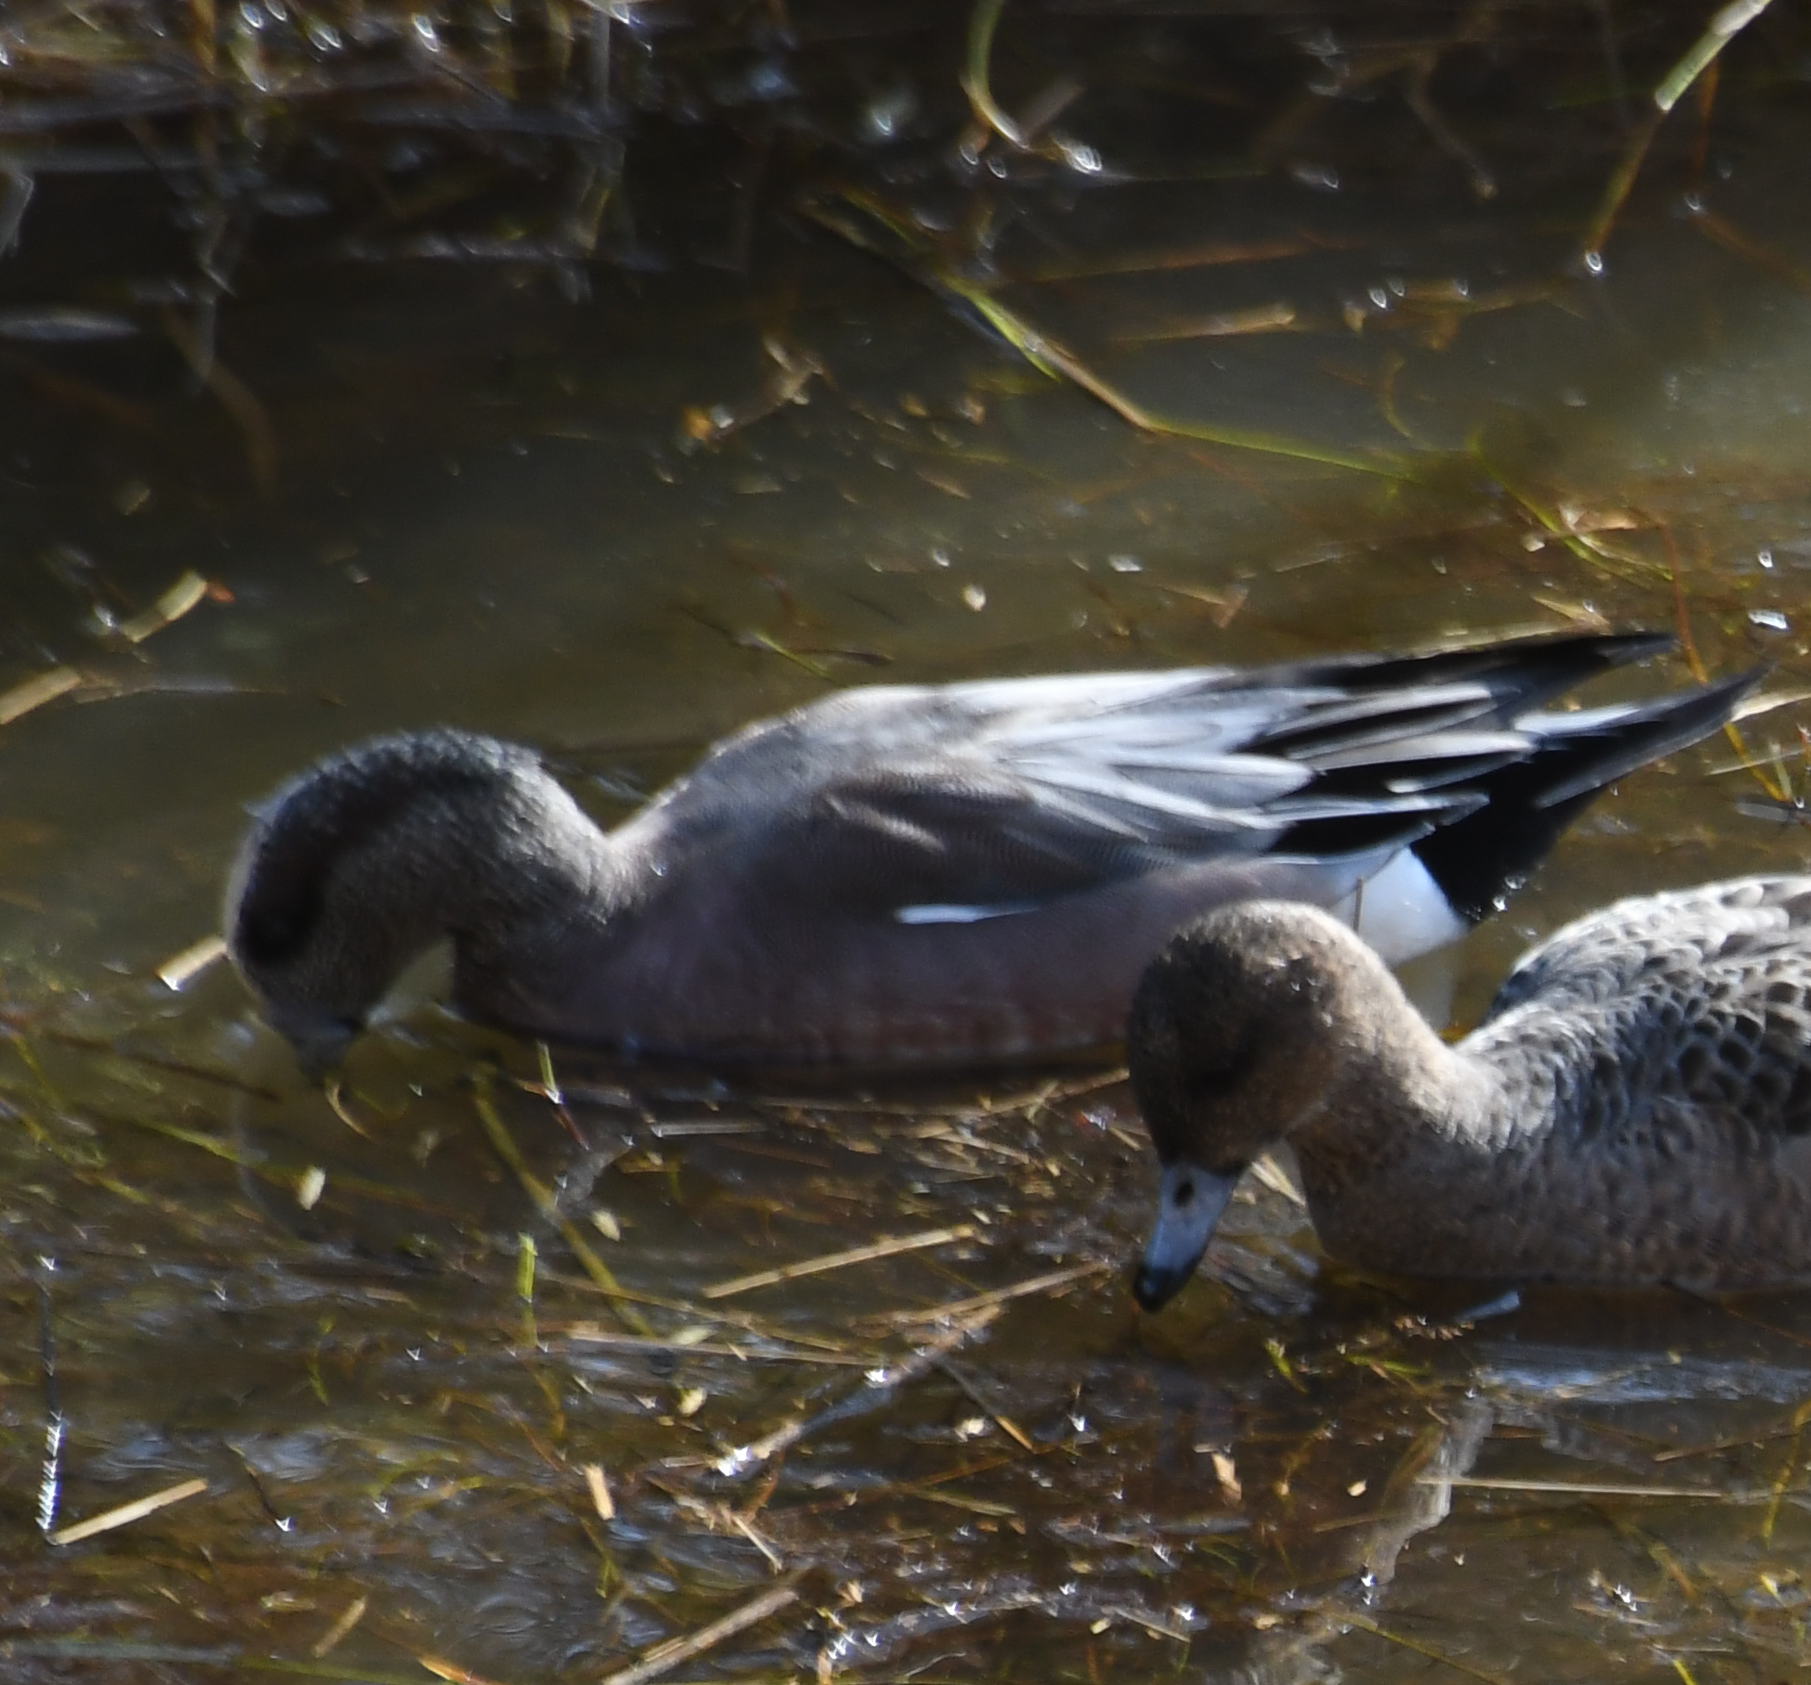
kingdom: Animalia
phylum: Chordata
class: Aves
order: Anseriformes
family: Anatidae
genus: Mareca
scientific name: Mareca americana
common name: American wigeon
